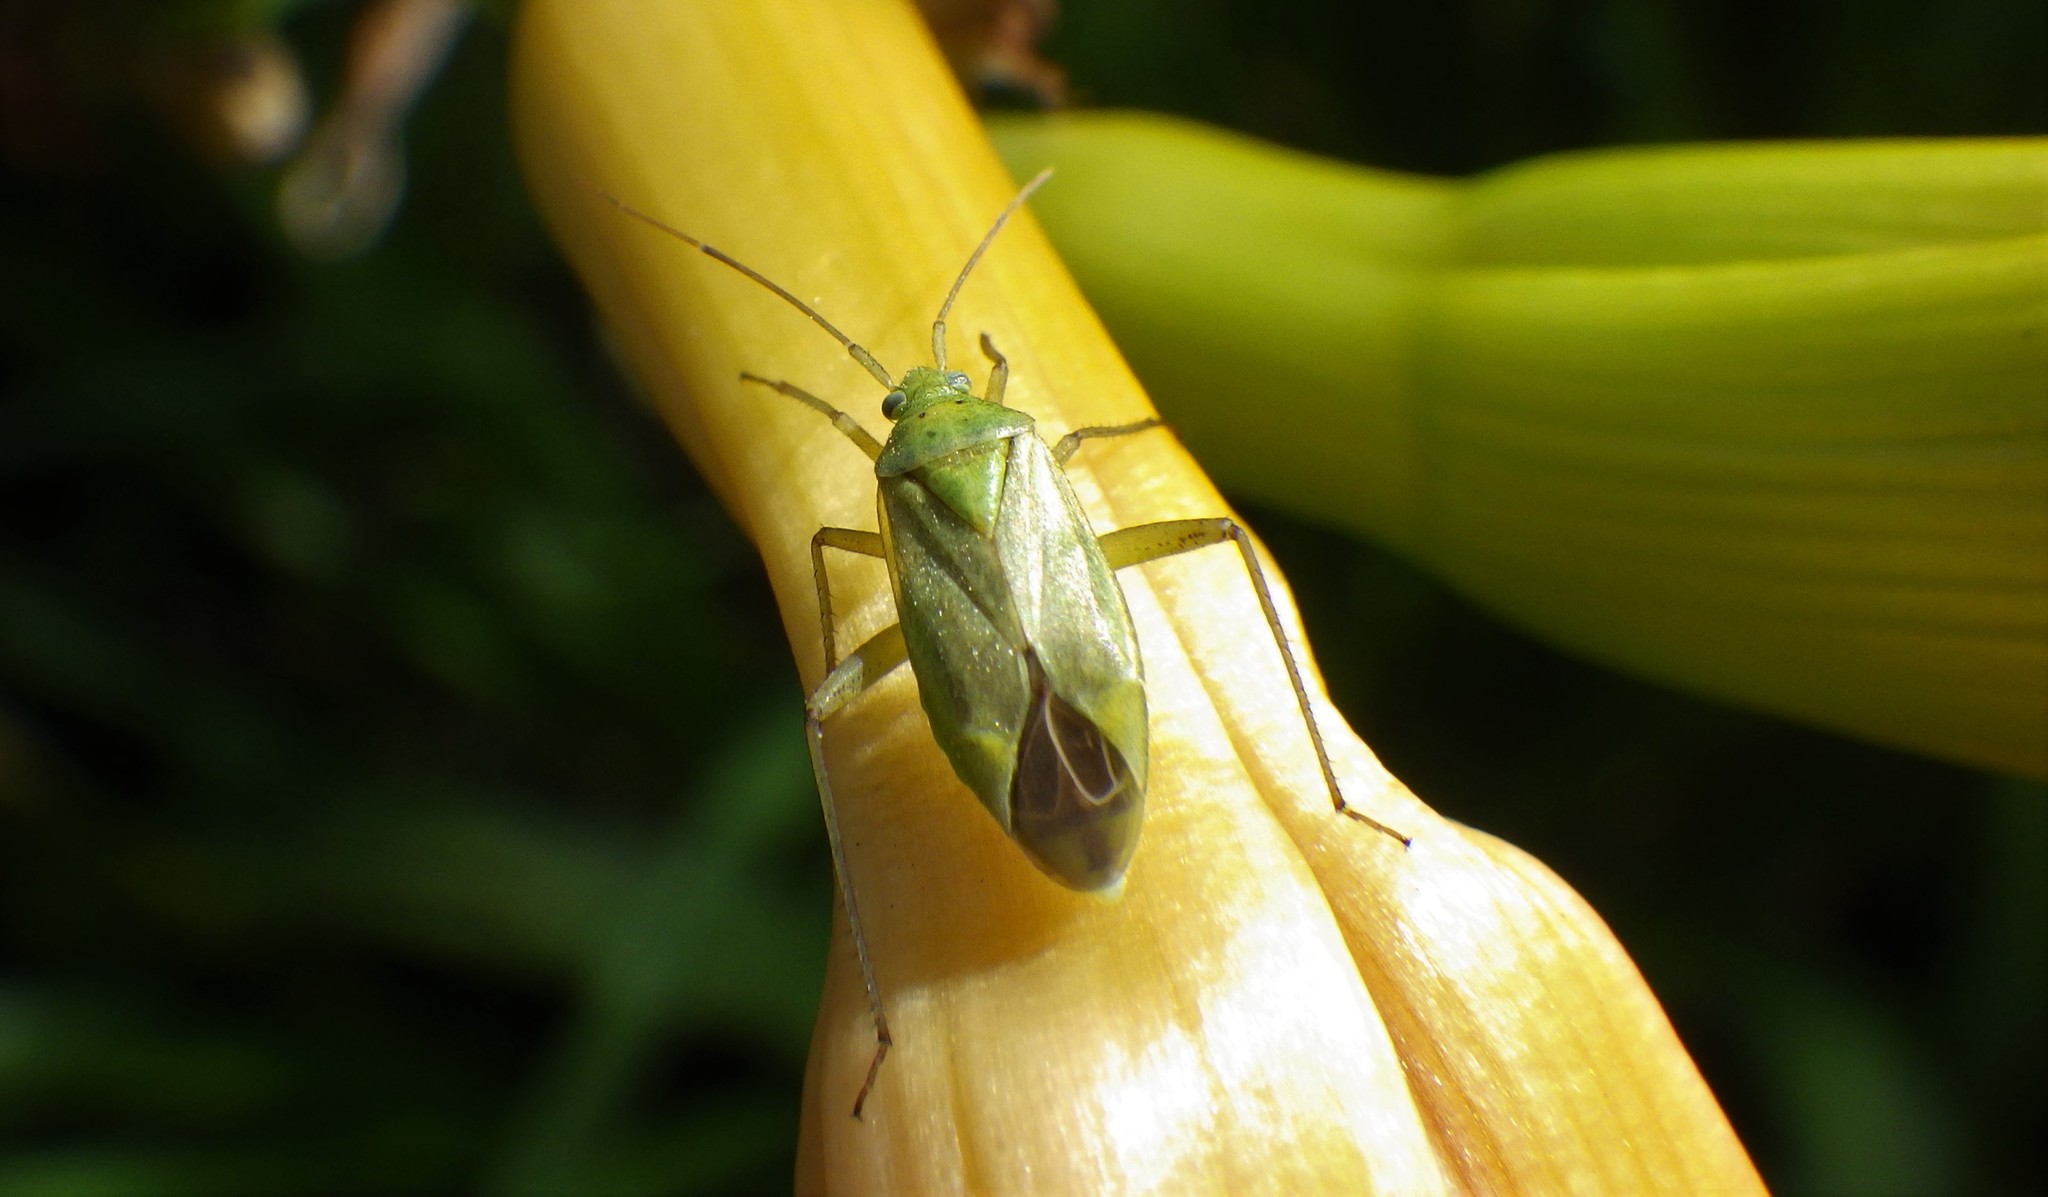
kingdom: Animalia
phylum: Arthropoda
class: Insecta
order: Hemiptera
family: Miridae
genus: Closterotomus
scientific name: Closterotomus norvegicus
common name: Plant bug
